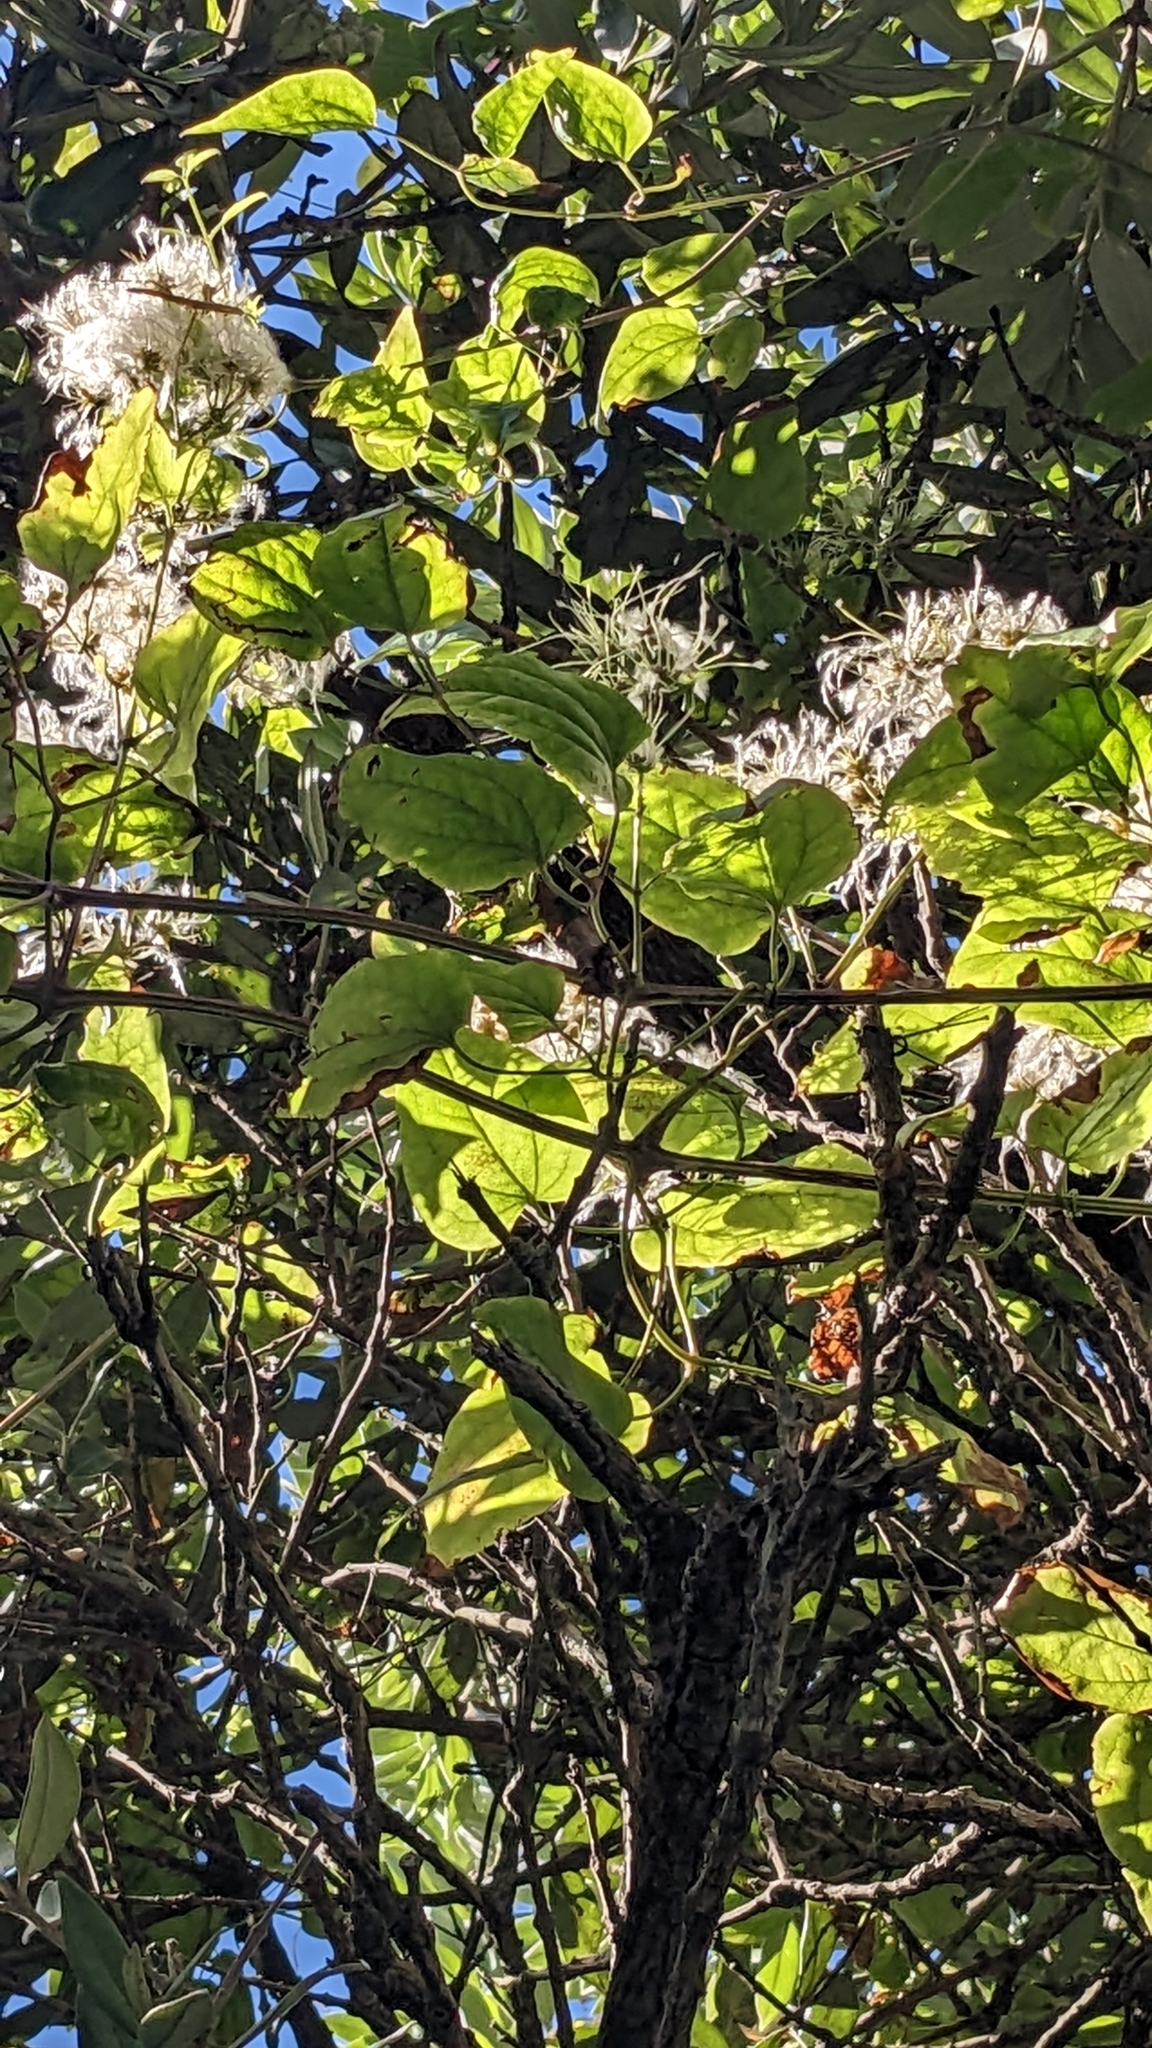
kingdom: Plantae
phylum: Tracheophyta
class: Magnoliopsida
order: Ranunculales
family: Ranunculaceae
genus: Clematis
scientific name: Clematis vitalba
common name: Evergreen clematis
